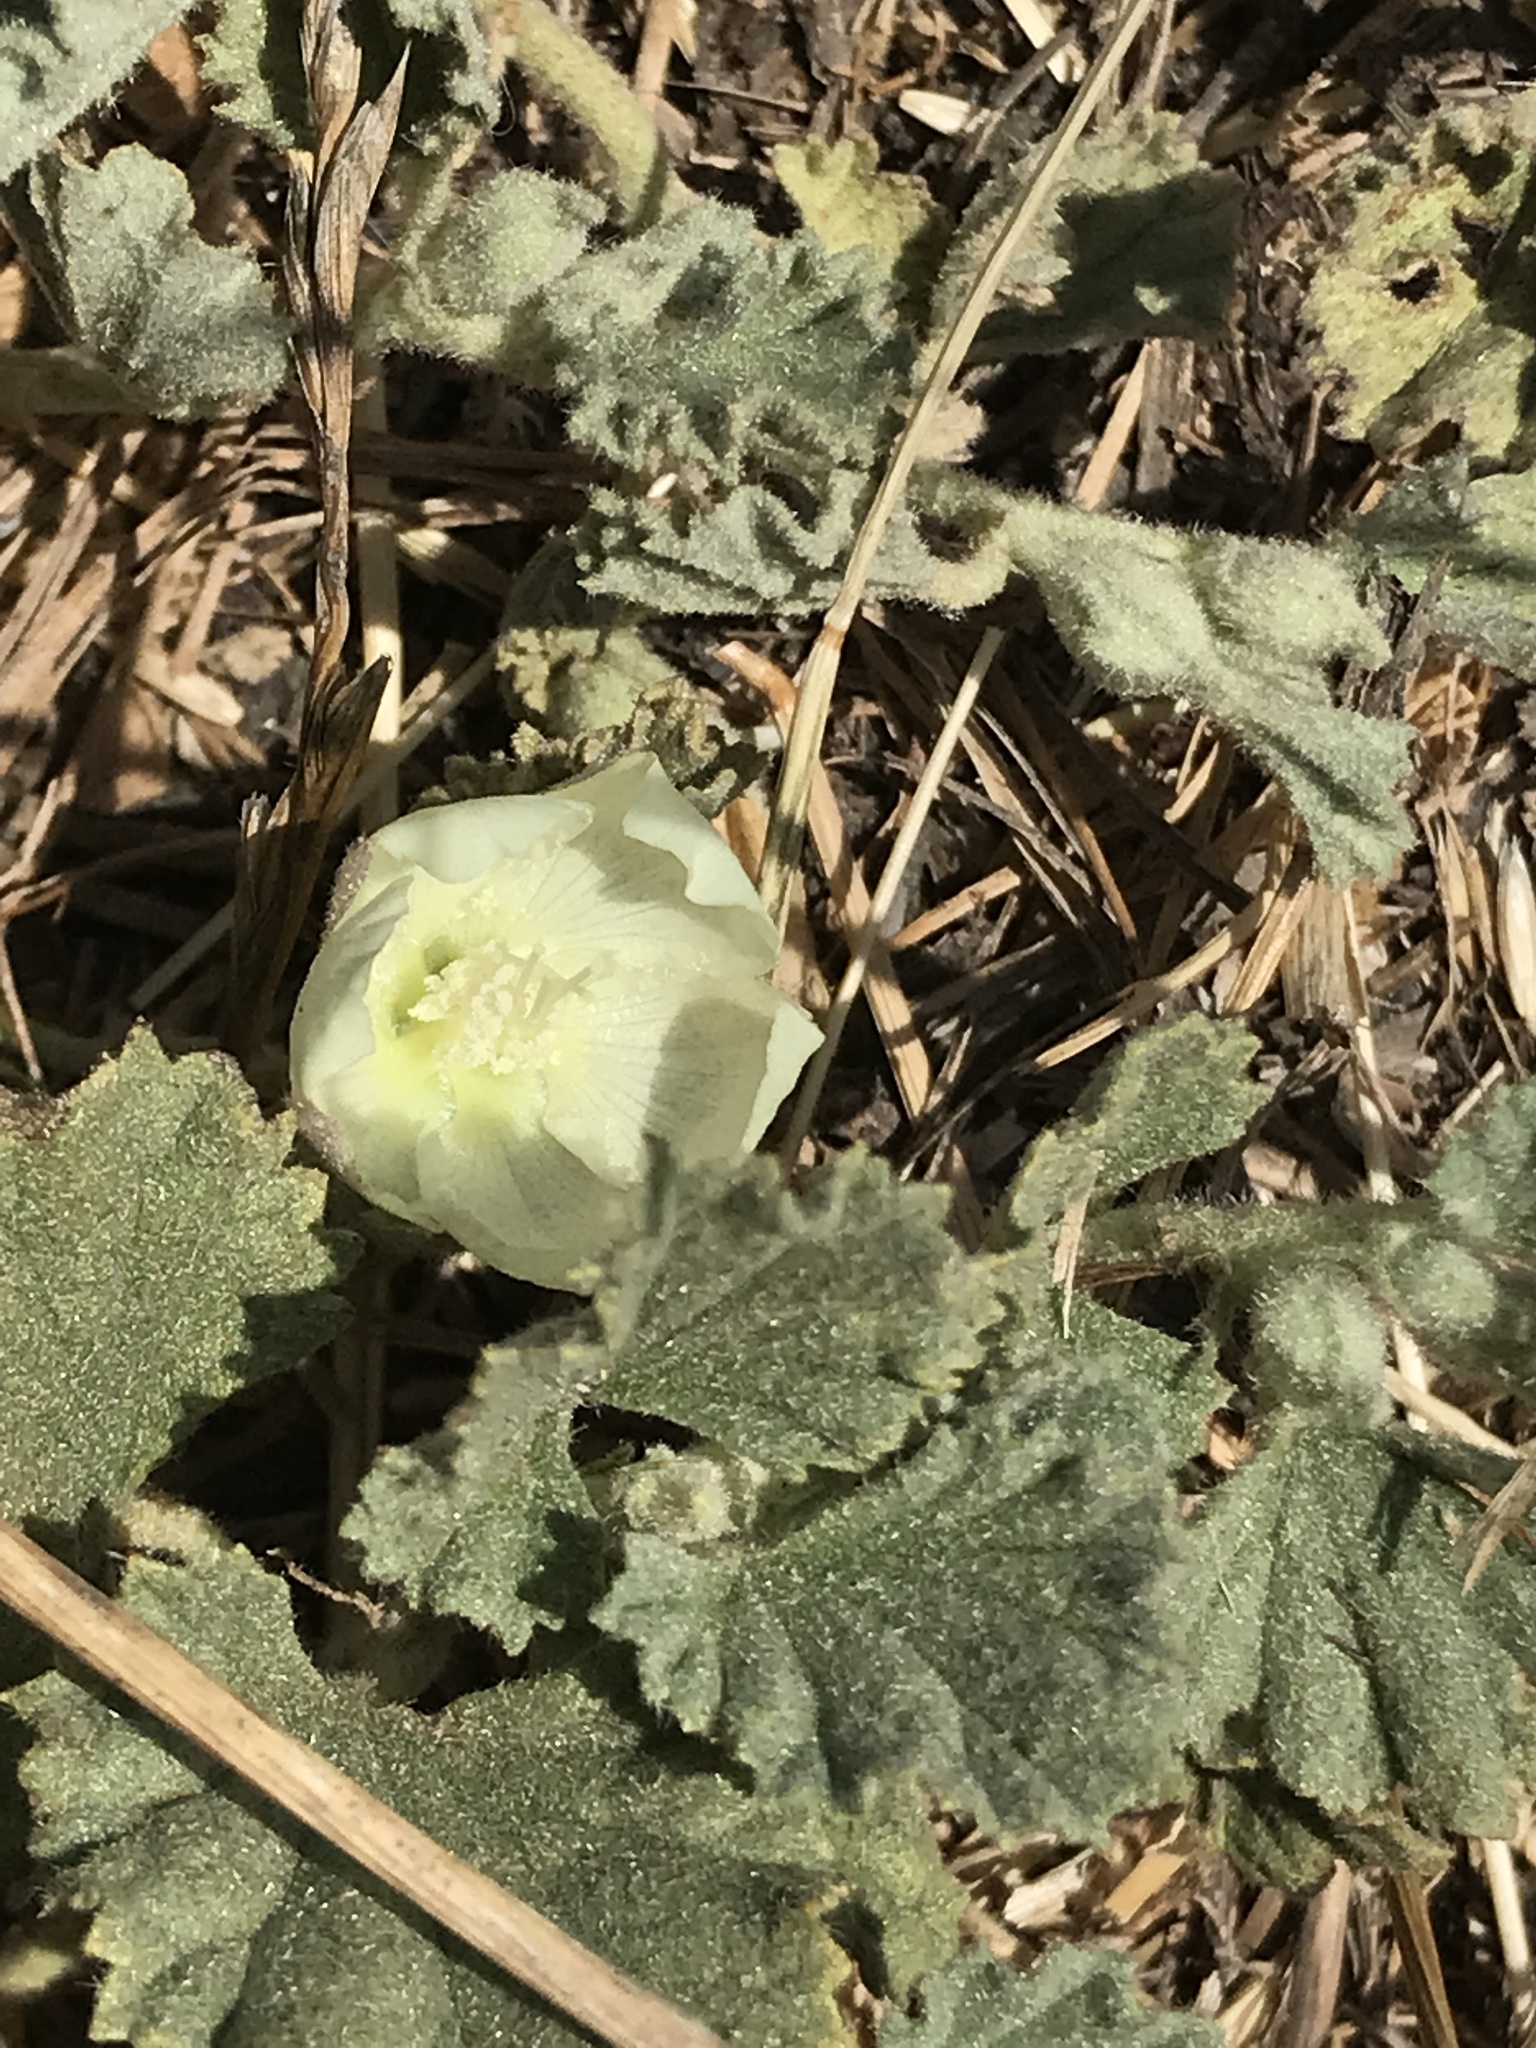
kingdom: Plantae
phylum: Tracheophyta
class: Magnoliopsida
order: Malvales
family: Malvaceae
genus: Malvella
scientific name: Malvella leprosa
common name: Alkali-mallow
